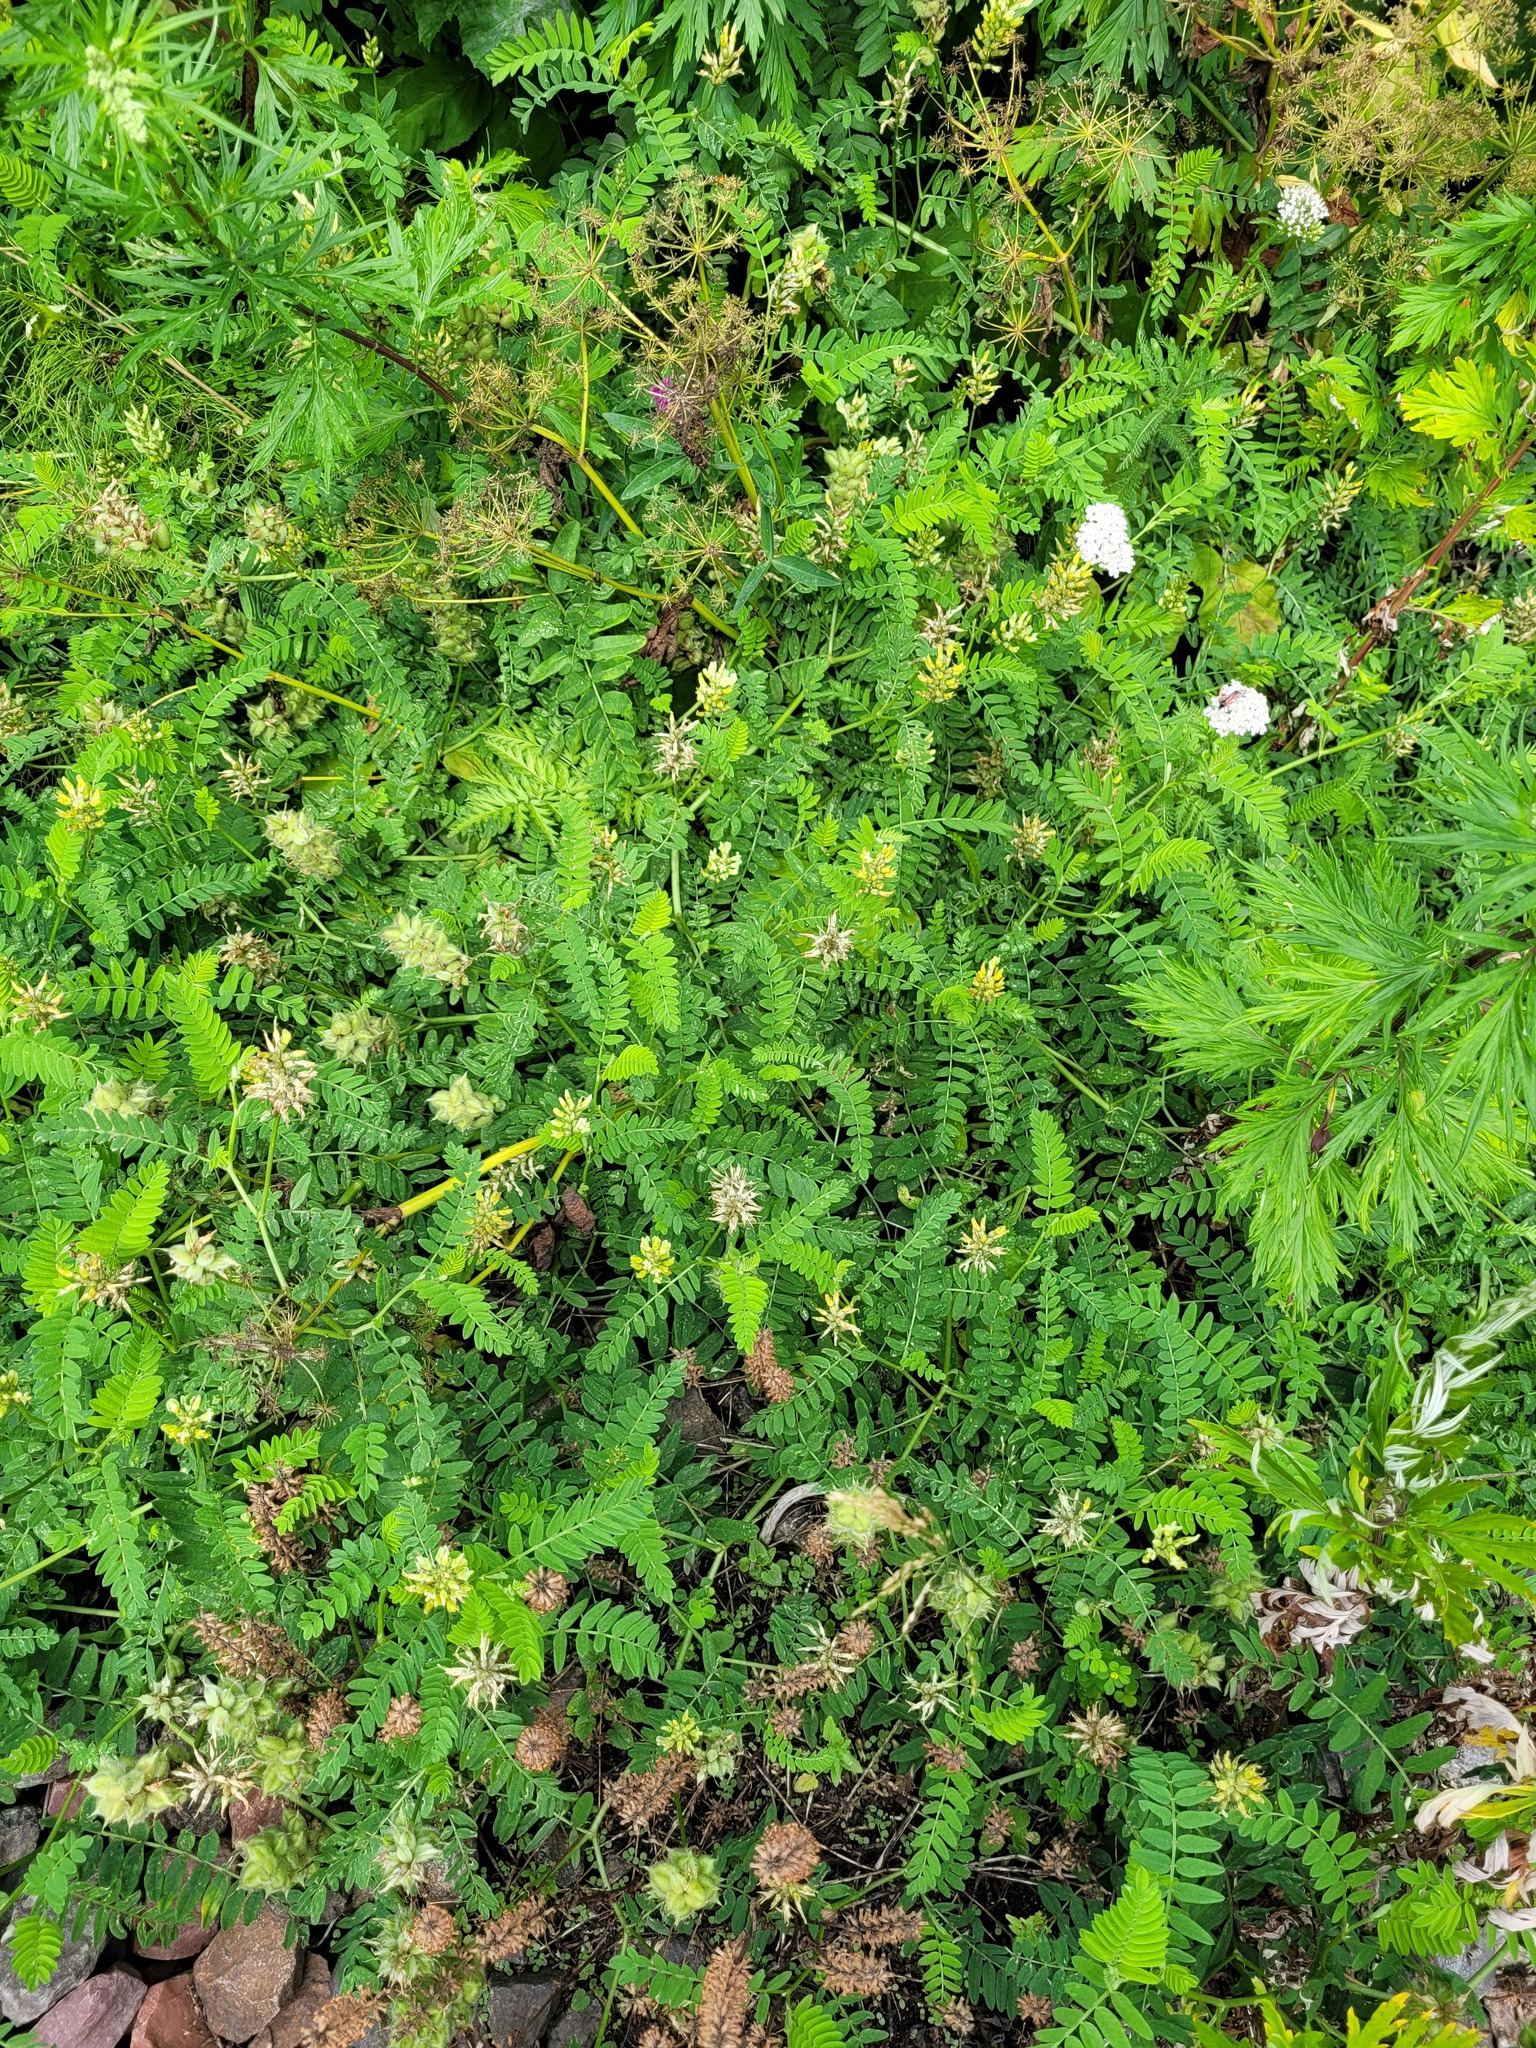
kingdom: Plantae
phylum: Tracheophyta
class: Magnoliopsida
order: Fabales
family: Fabaceae
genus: Astragalus
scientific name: Astragalus cicer
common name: Chick-pea milk-vetch
